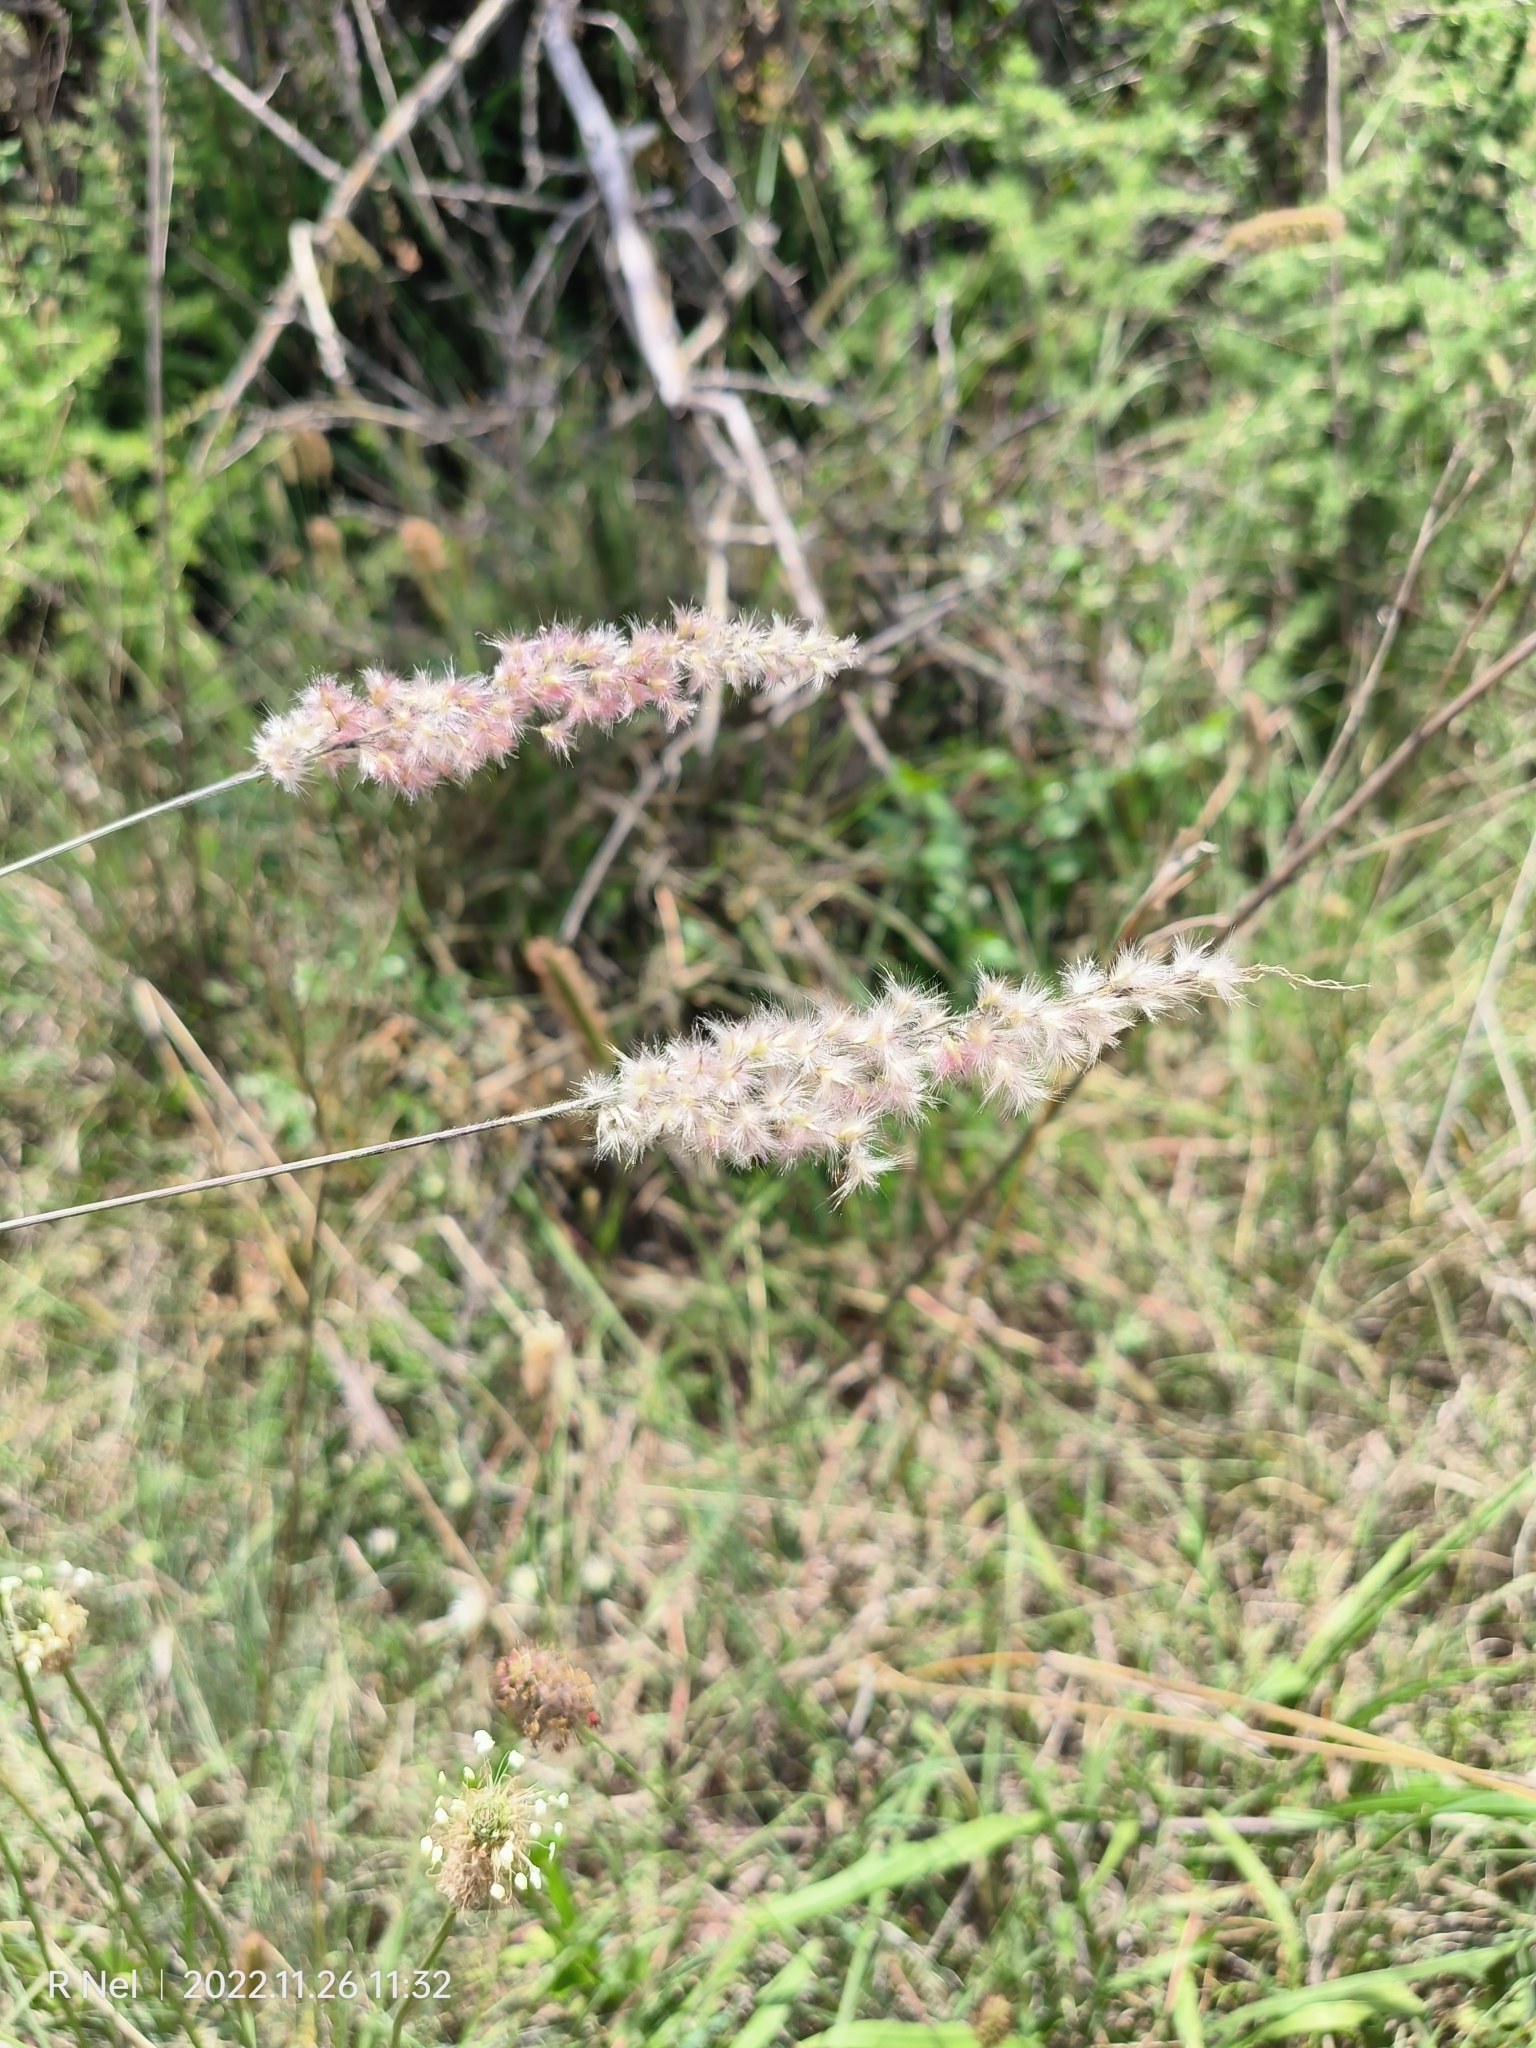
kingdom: Plantae
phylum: Tracheophyta
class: Liliopsida
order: Poales
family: Poaceae
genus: Melinis
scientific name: Melinis nerviglumis
